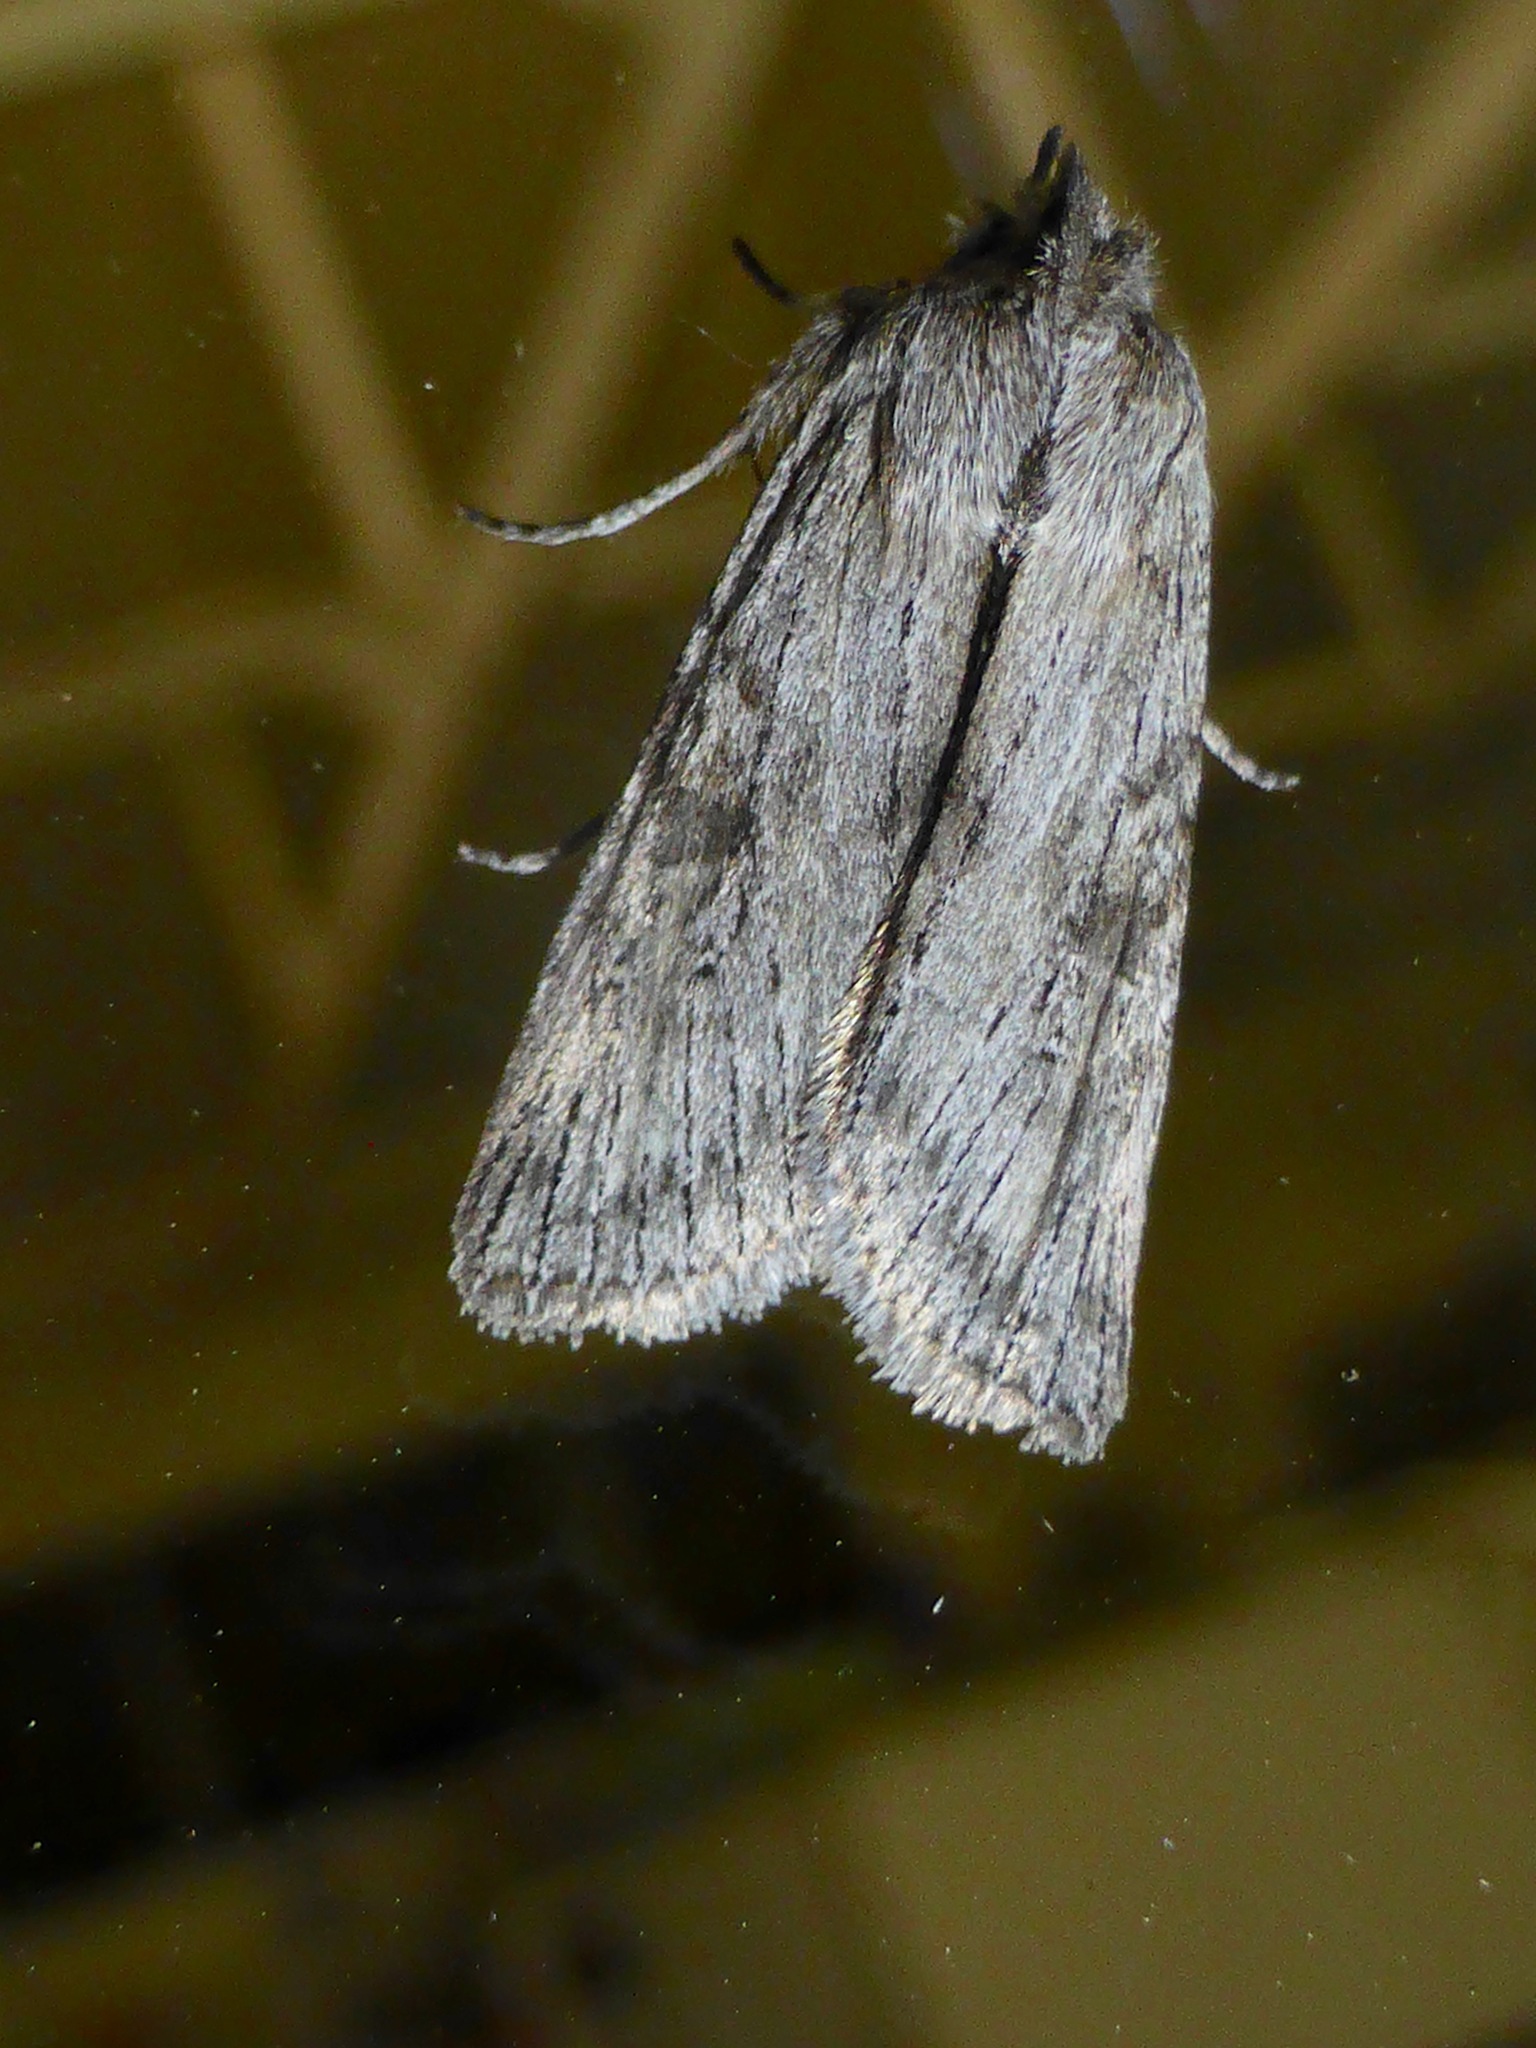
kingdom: Animalia
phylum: Arthropoda
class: Insecta
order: Lepidoptera
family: Noctuidae
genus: Physetica
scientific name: Physetica phricias
